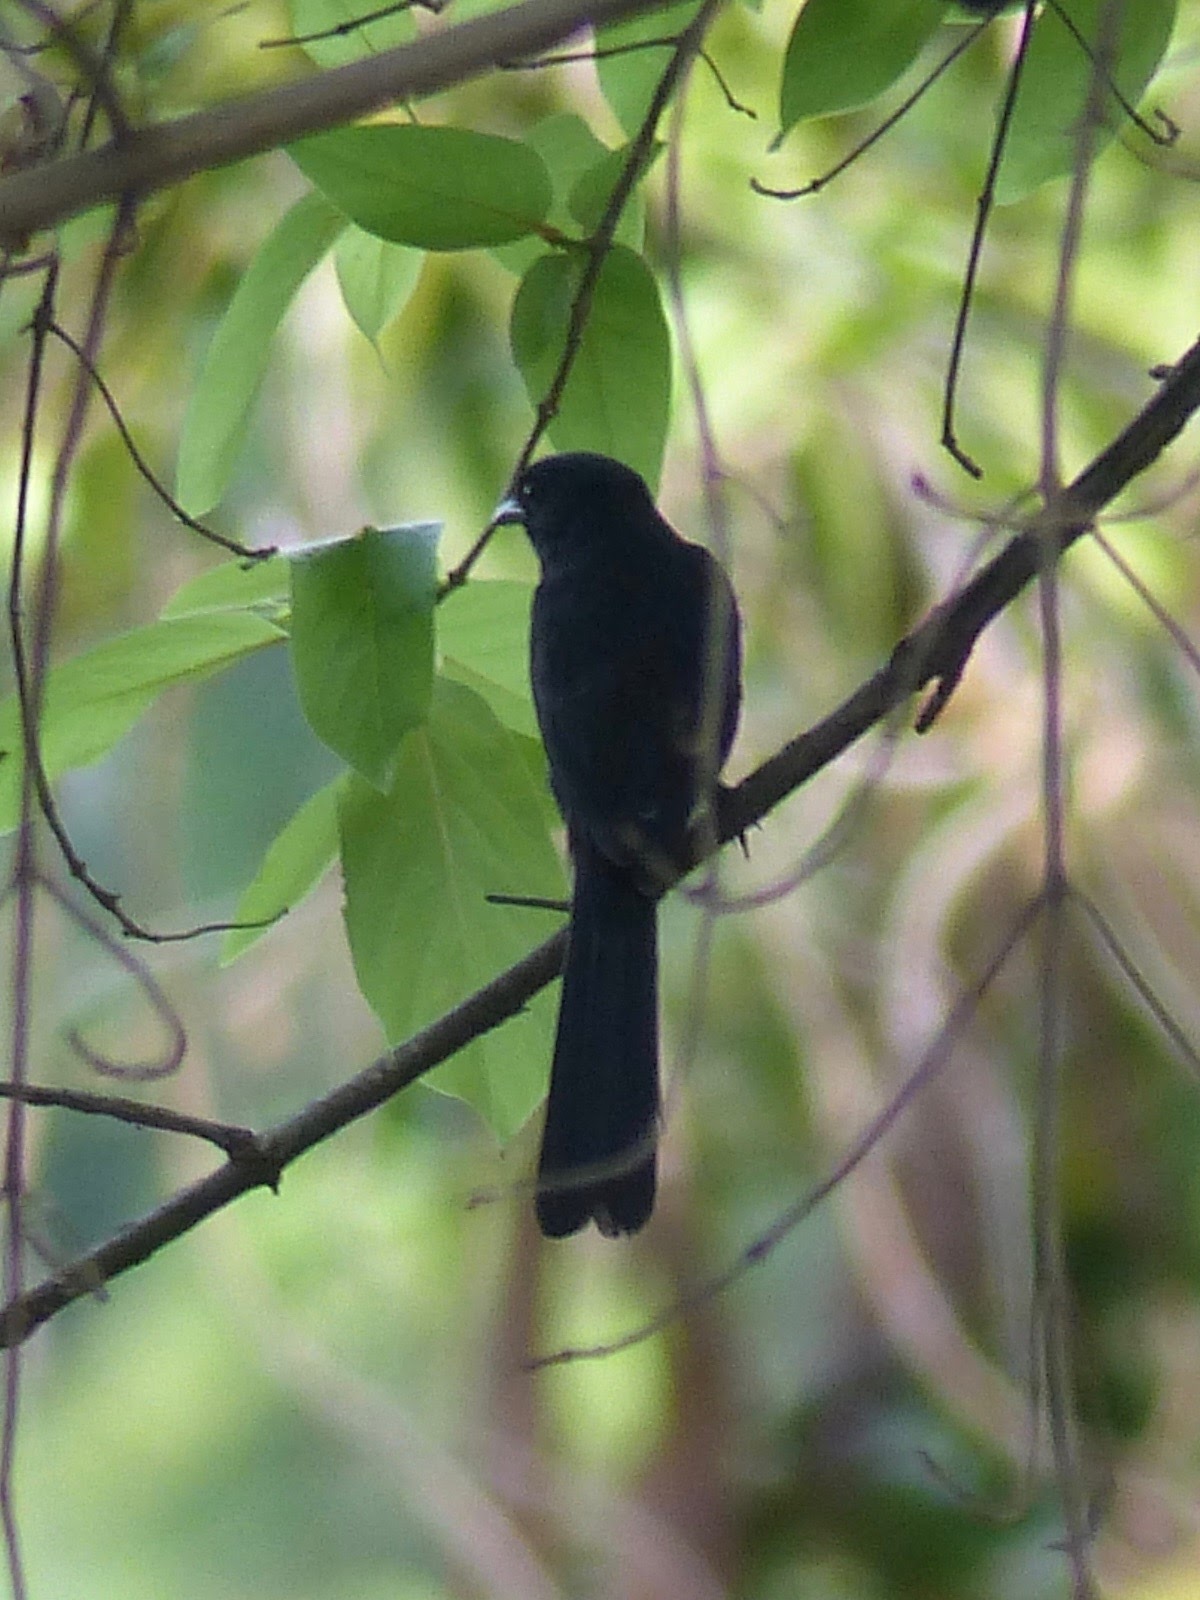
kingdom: Animalia
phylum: Chordata
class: Aves
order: Passeriformes
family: Muscicapidae
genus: Melaenornis
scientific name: Melaenornis edolioides
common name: Northern black flycatcher
